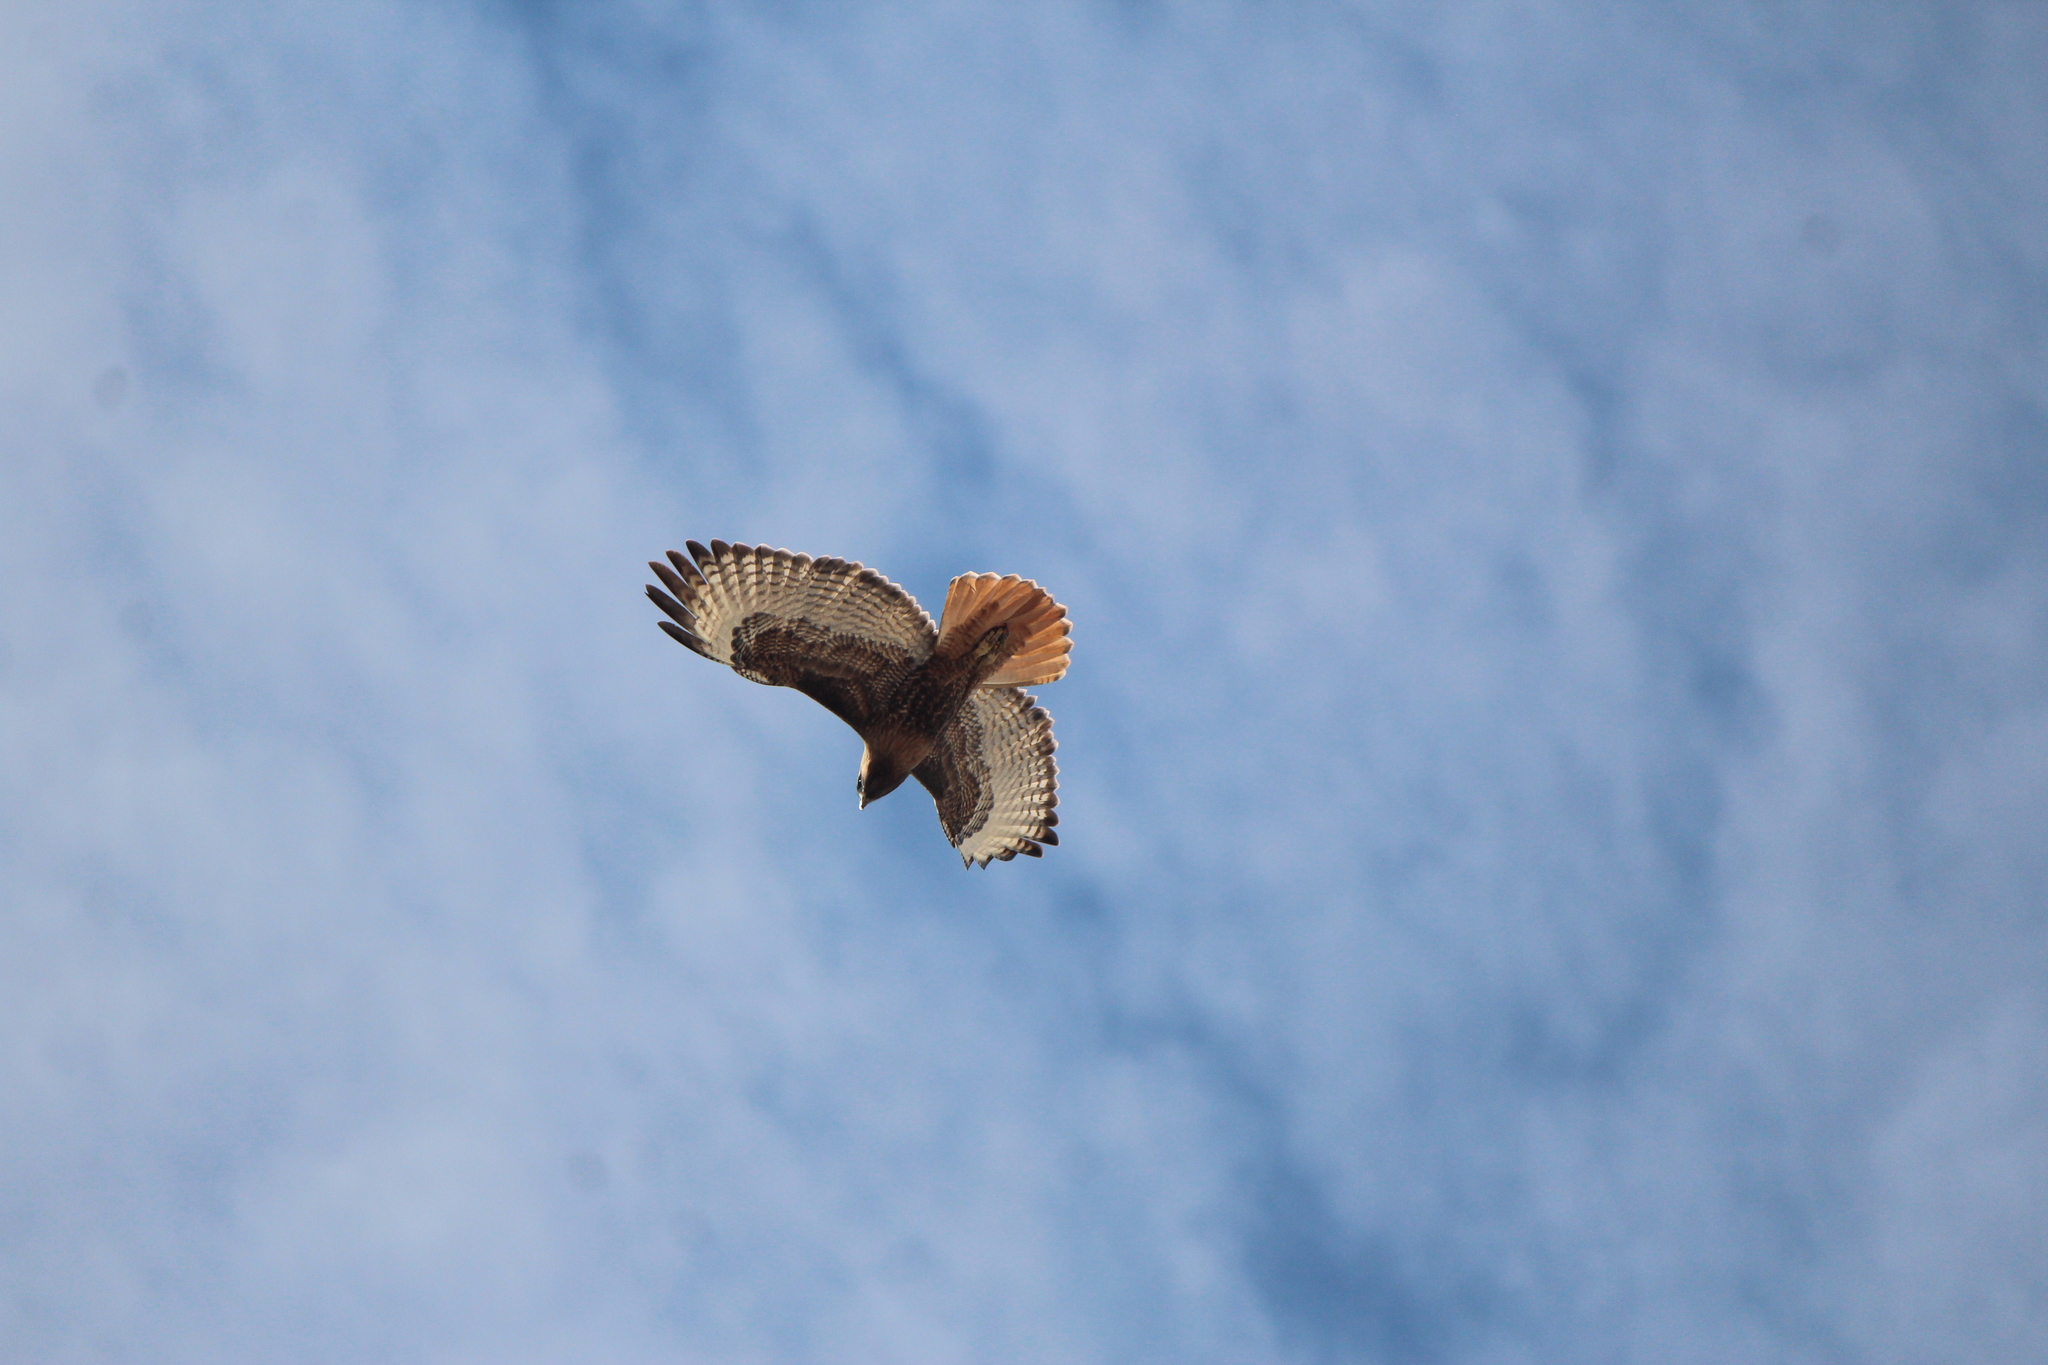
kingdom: Animalia
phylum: Chordata
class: Aves
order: Accipitriformes
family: Accipitridae
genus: Buteo
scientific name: Buteo jamaicensis
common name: Red-tailed hawk
